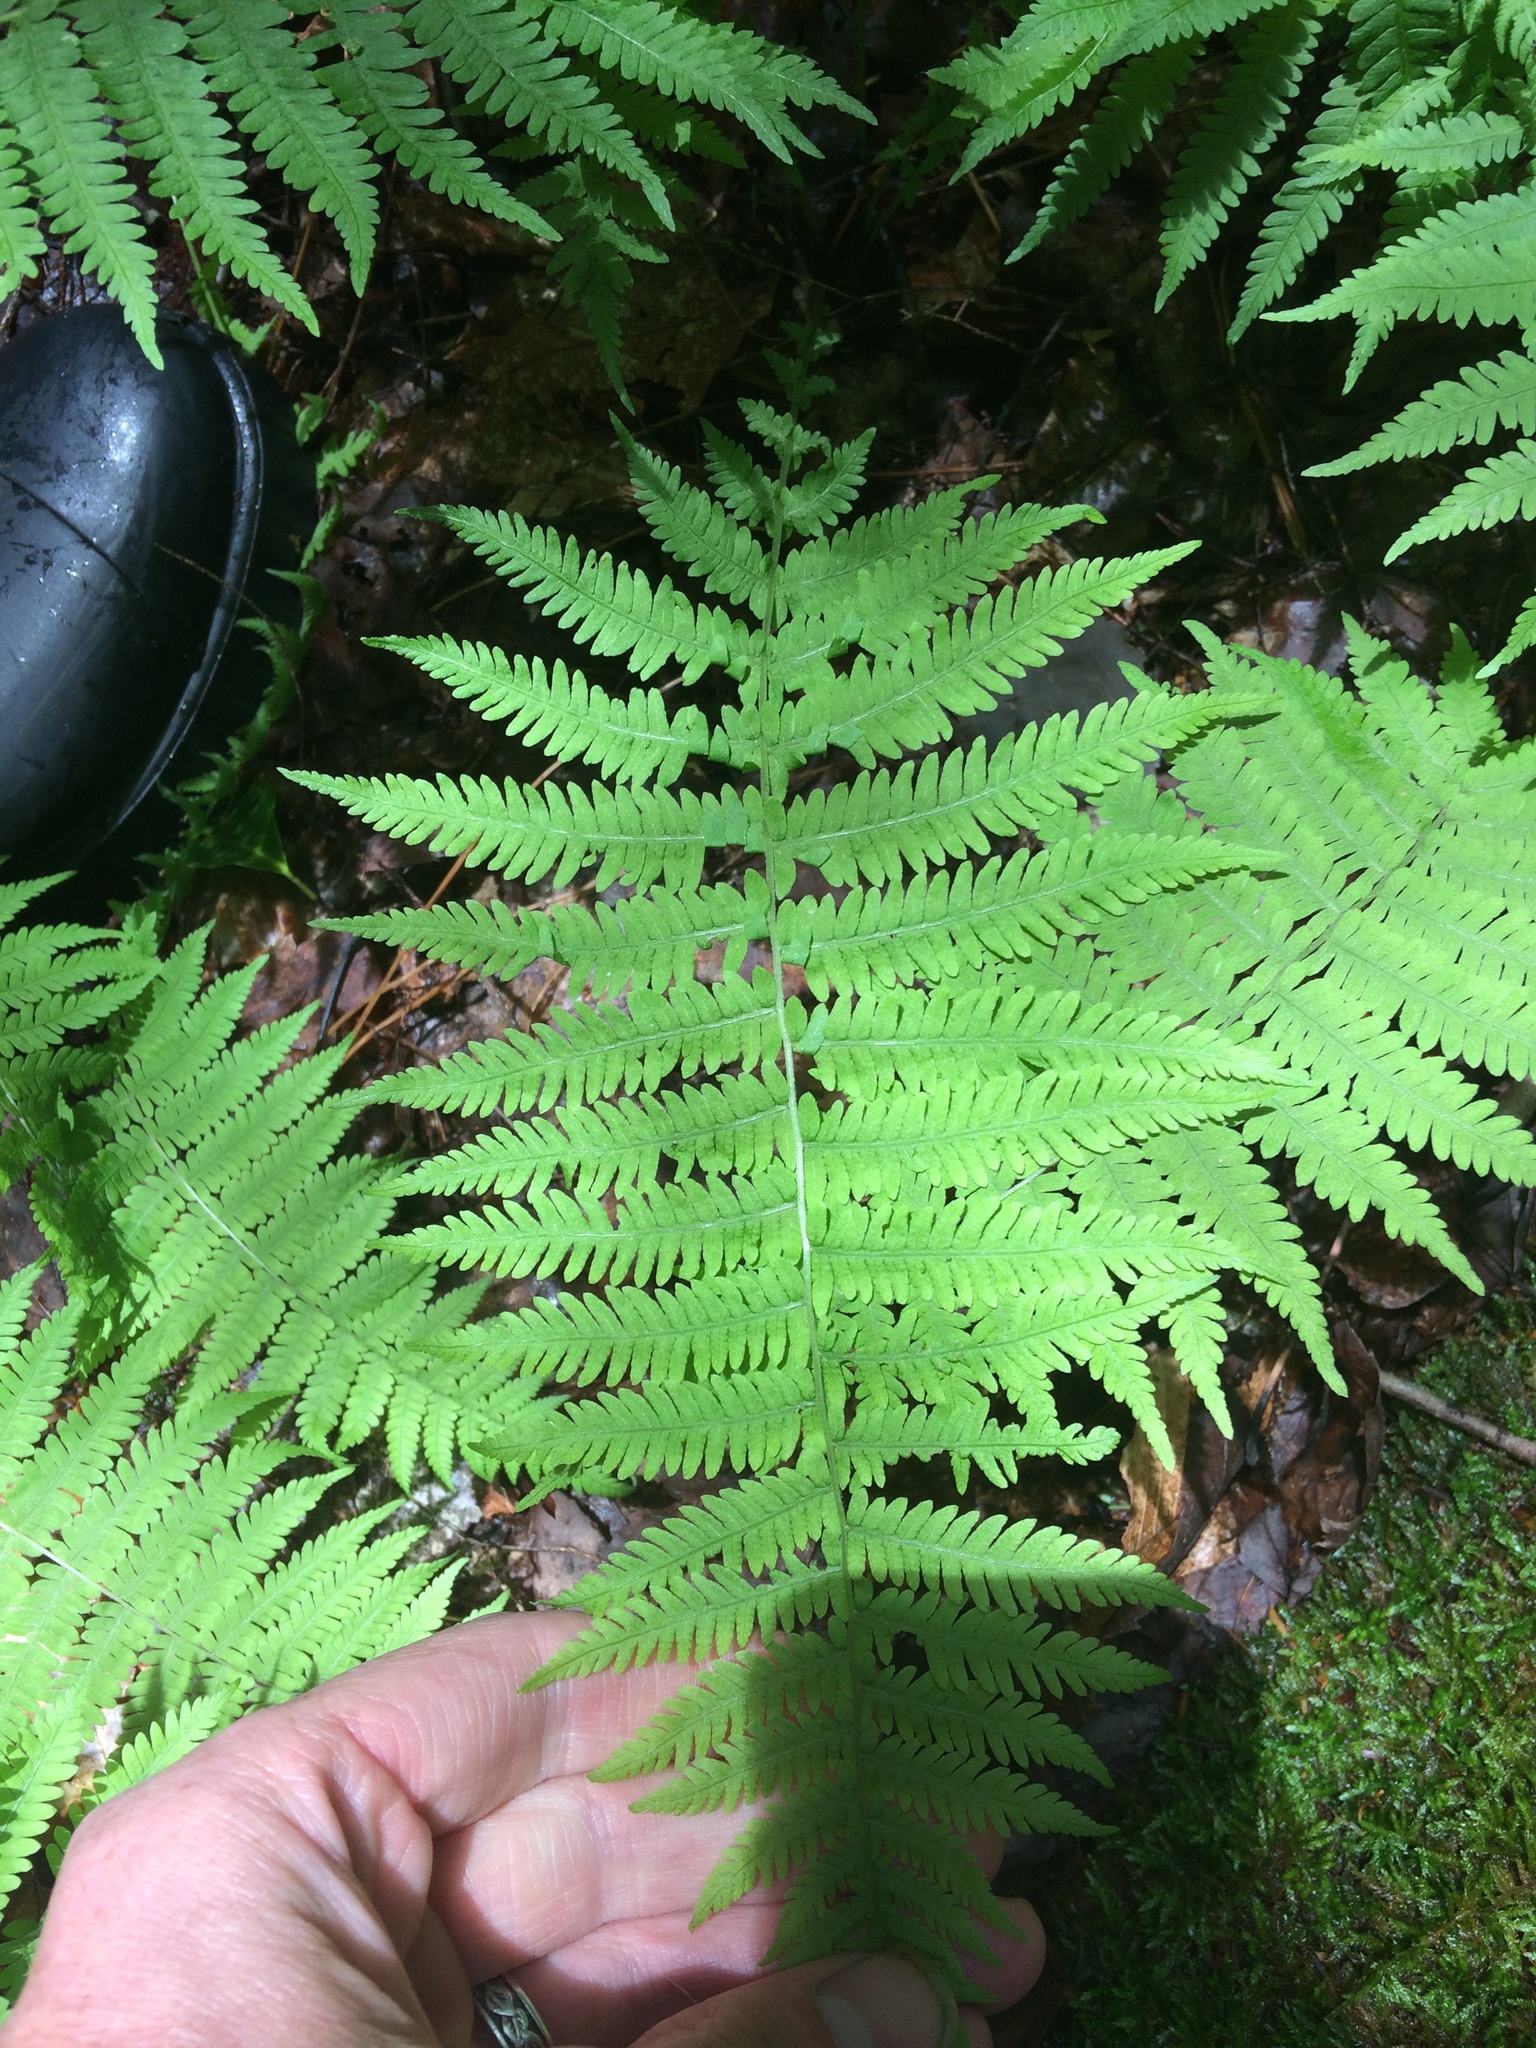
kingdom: Plantae
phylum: Tracheophyta
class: Polypodiopsida
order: Polypodiales
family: Thelypteridaceae
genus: Amauropelta
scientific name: Amauropelta noveboracensis
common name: New york fern
